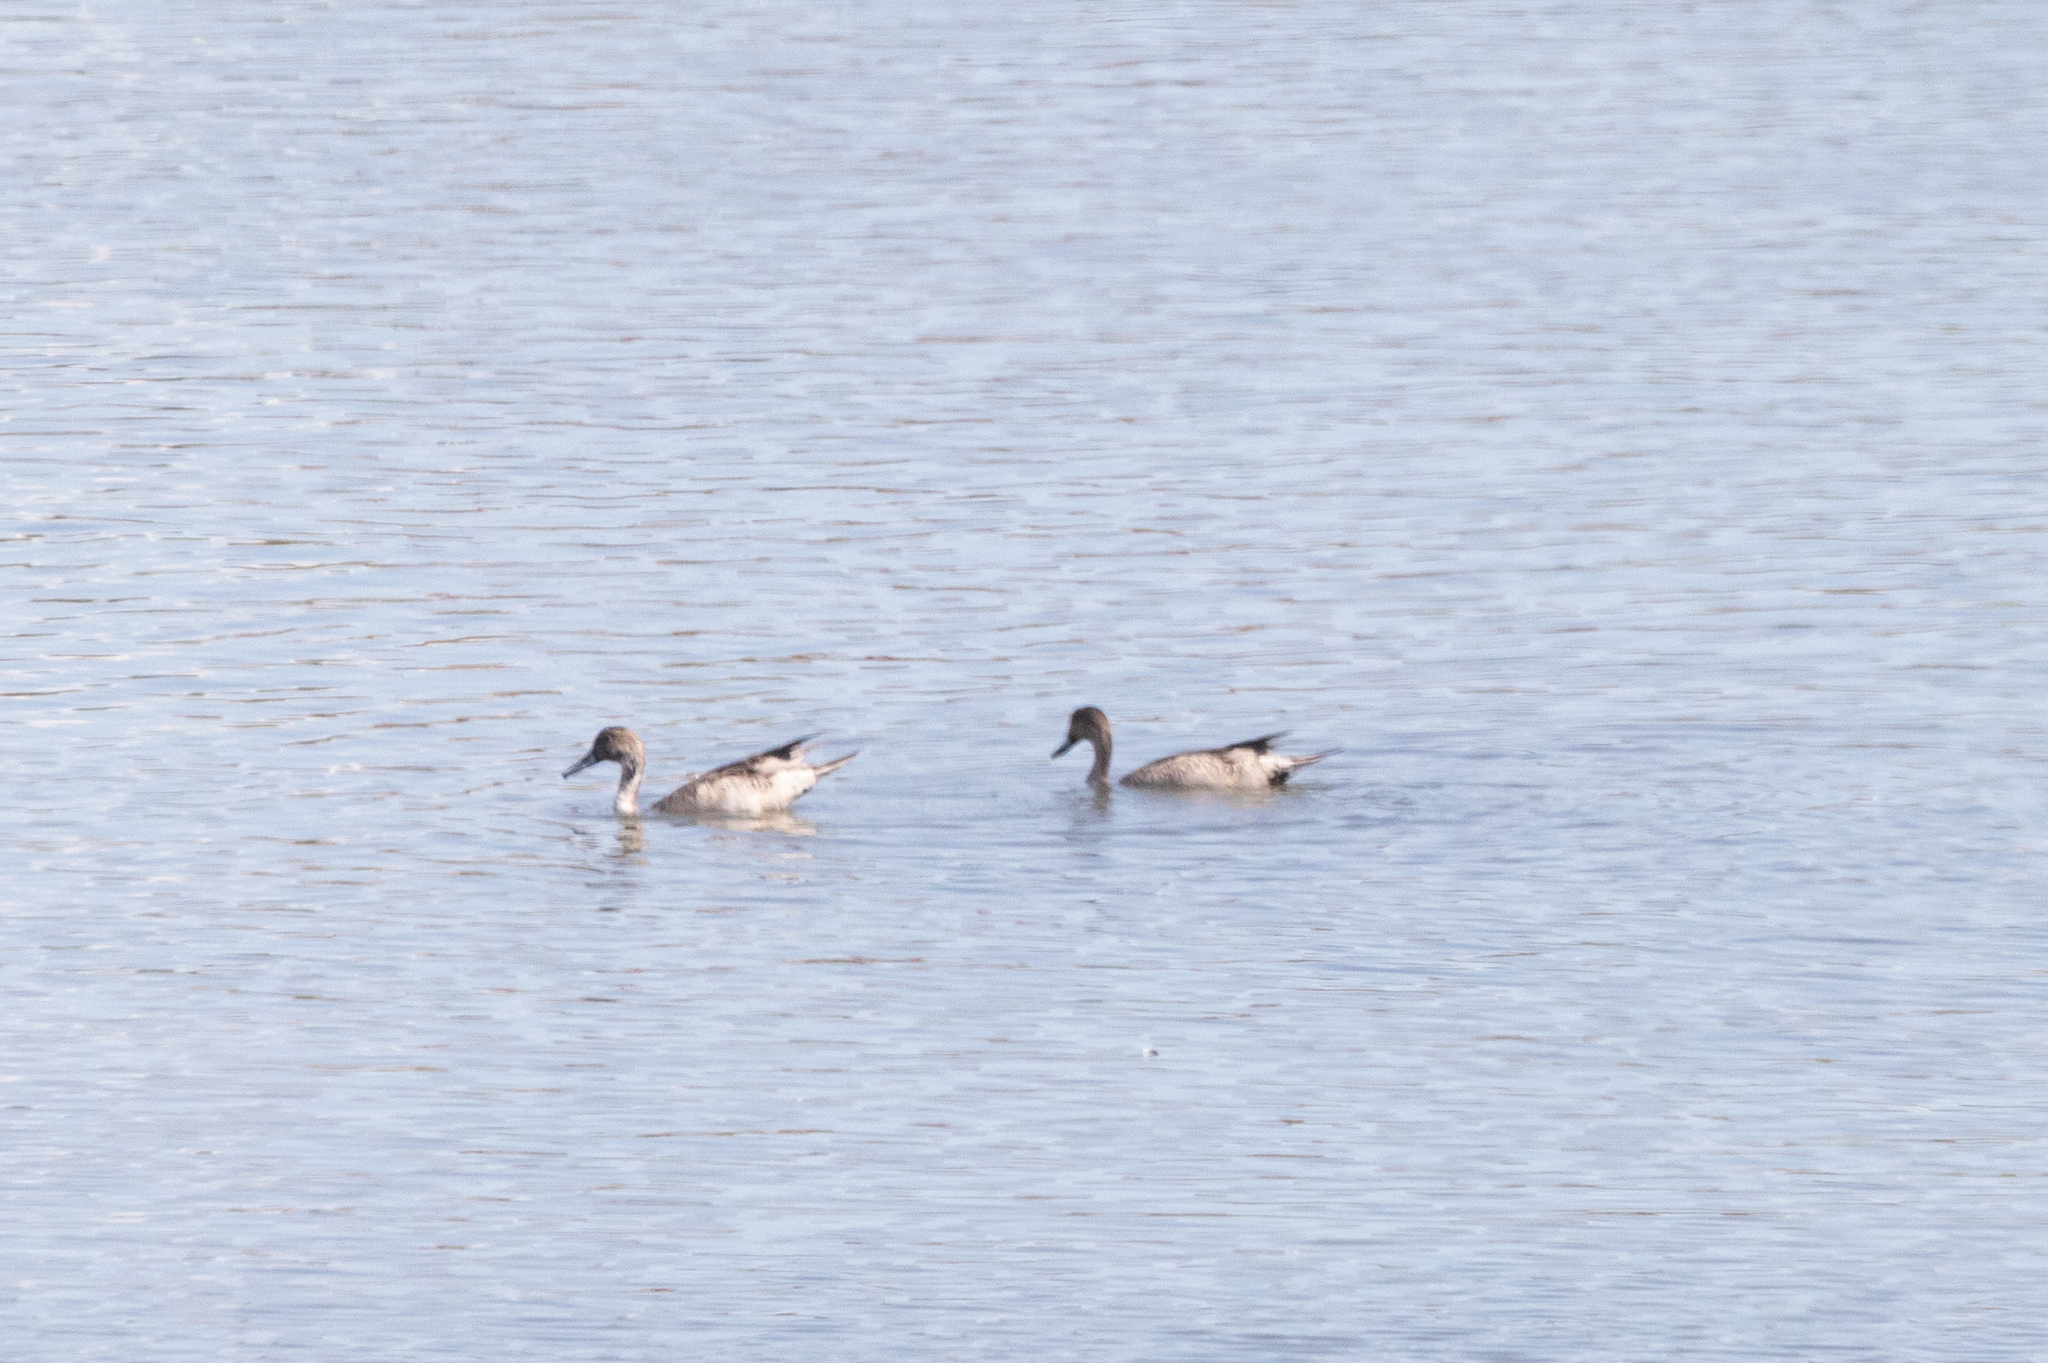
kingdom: Animalia
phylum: Chordata
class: Aves
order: Anseriformes
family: Anatidae
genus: Anas
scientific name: Anas acuta
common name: Northern pintail
